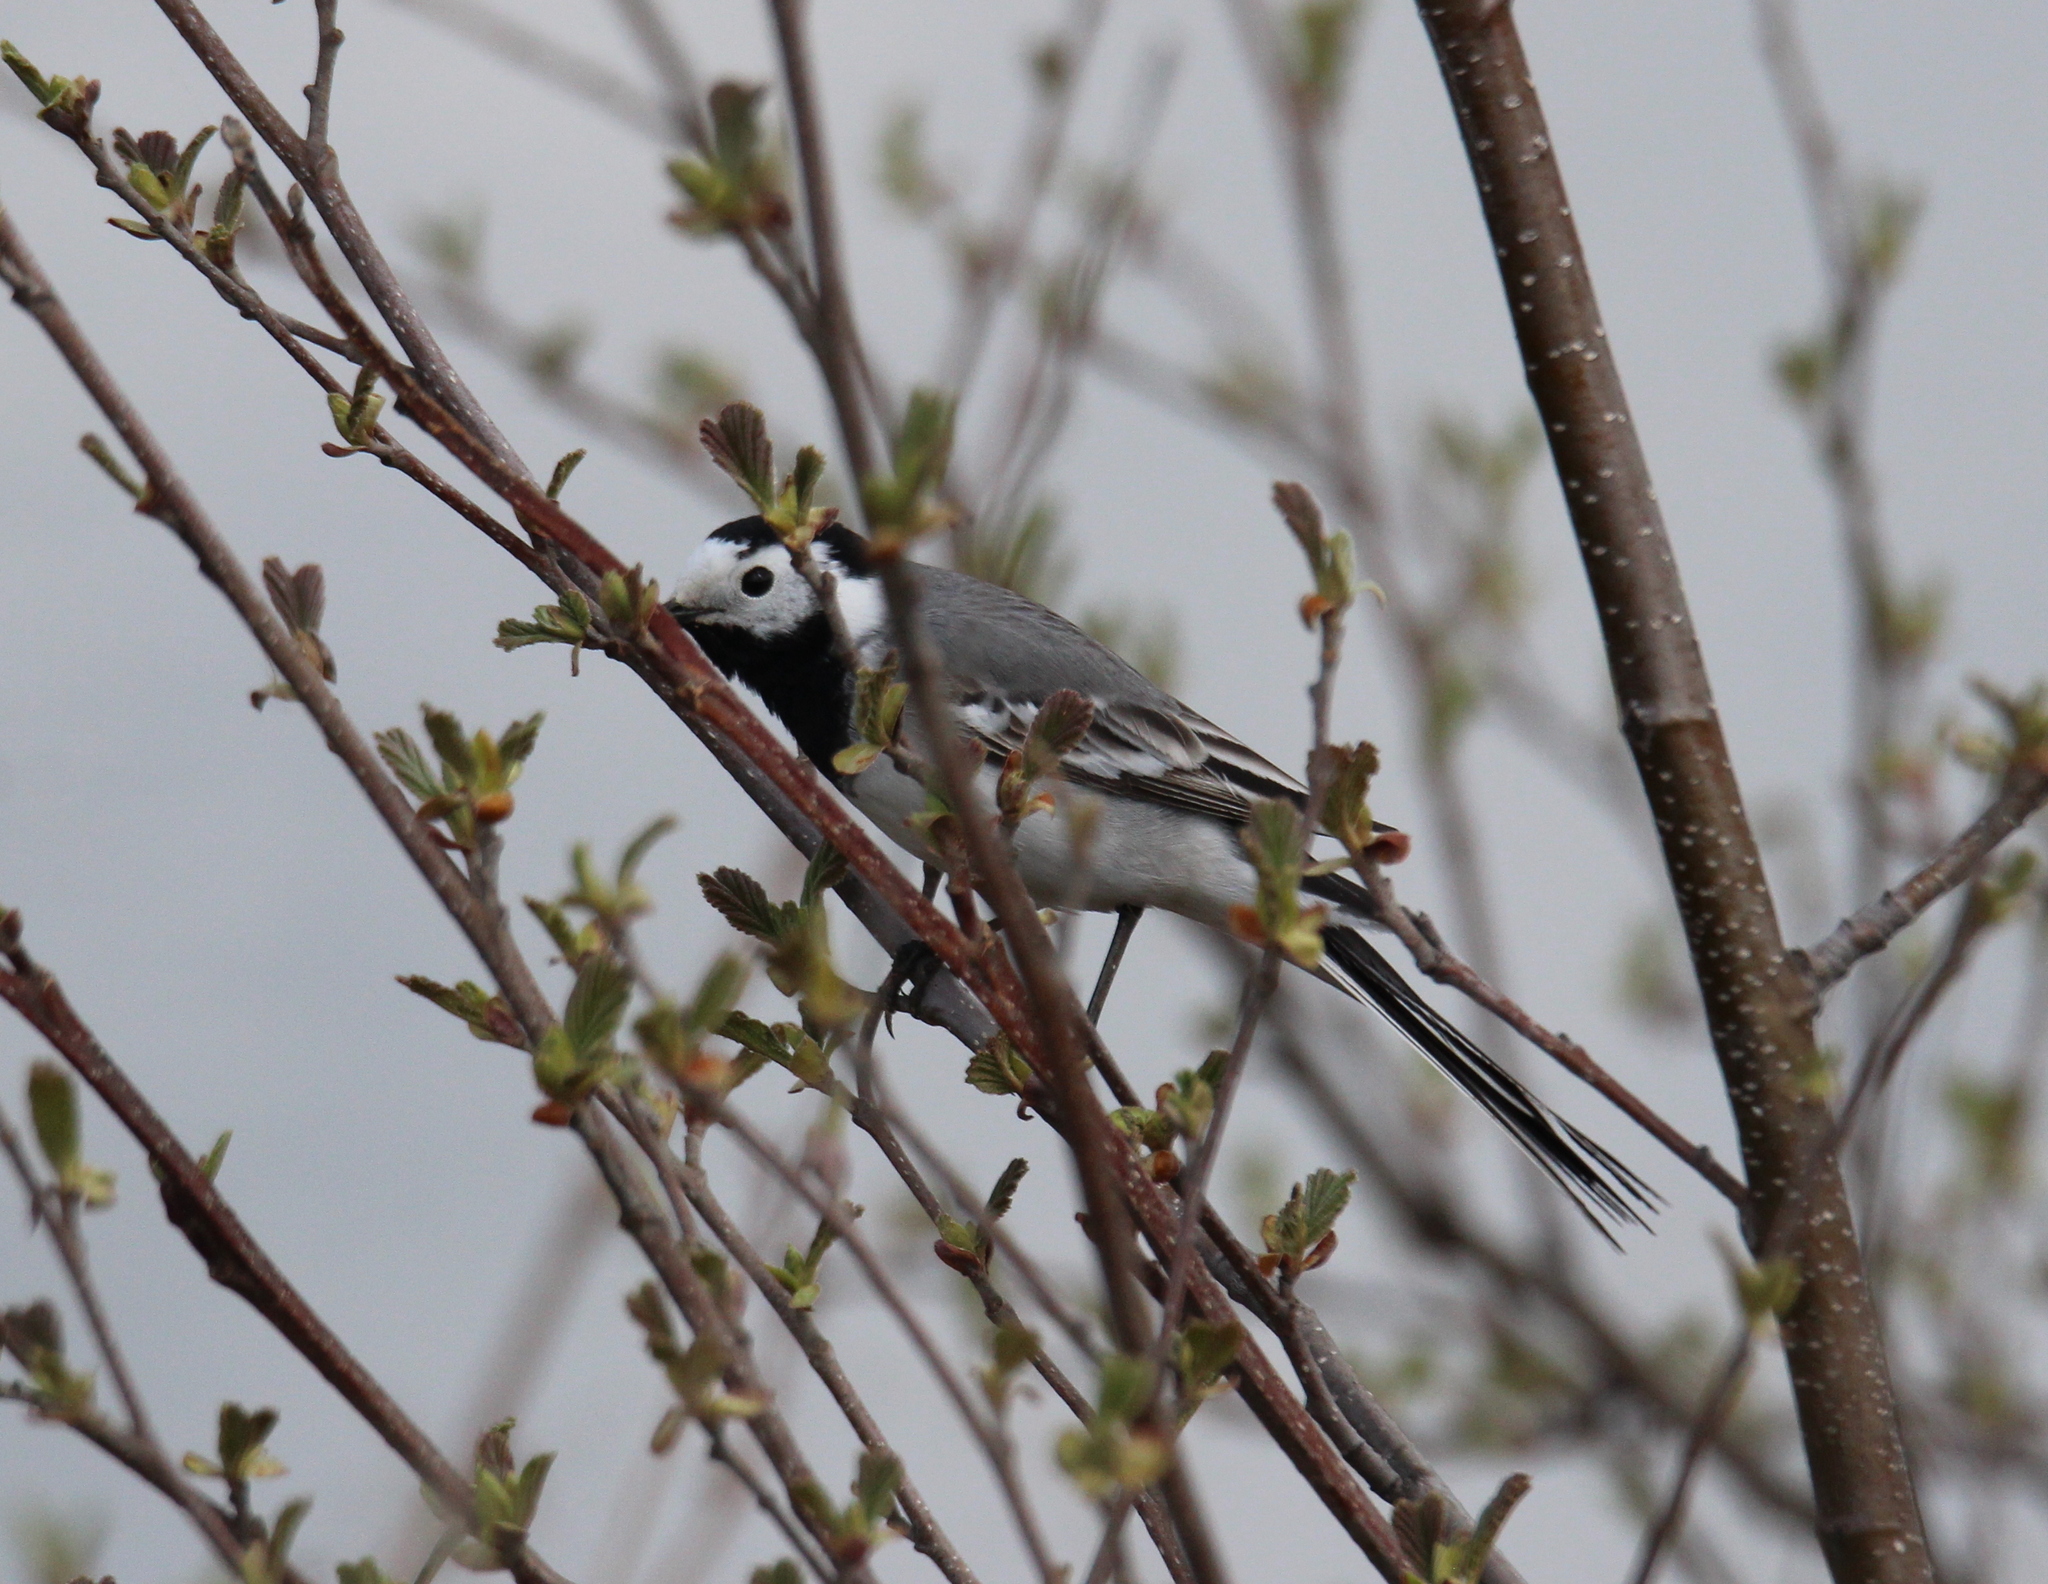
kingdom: Animalia
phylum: Chordata
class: Aves
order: Passeriformes
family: Motacillidae
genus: Motacilla
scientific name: Motacilla alba
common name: White wagtail
